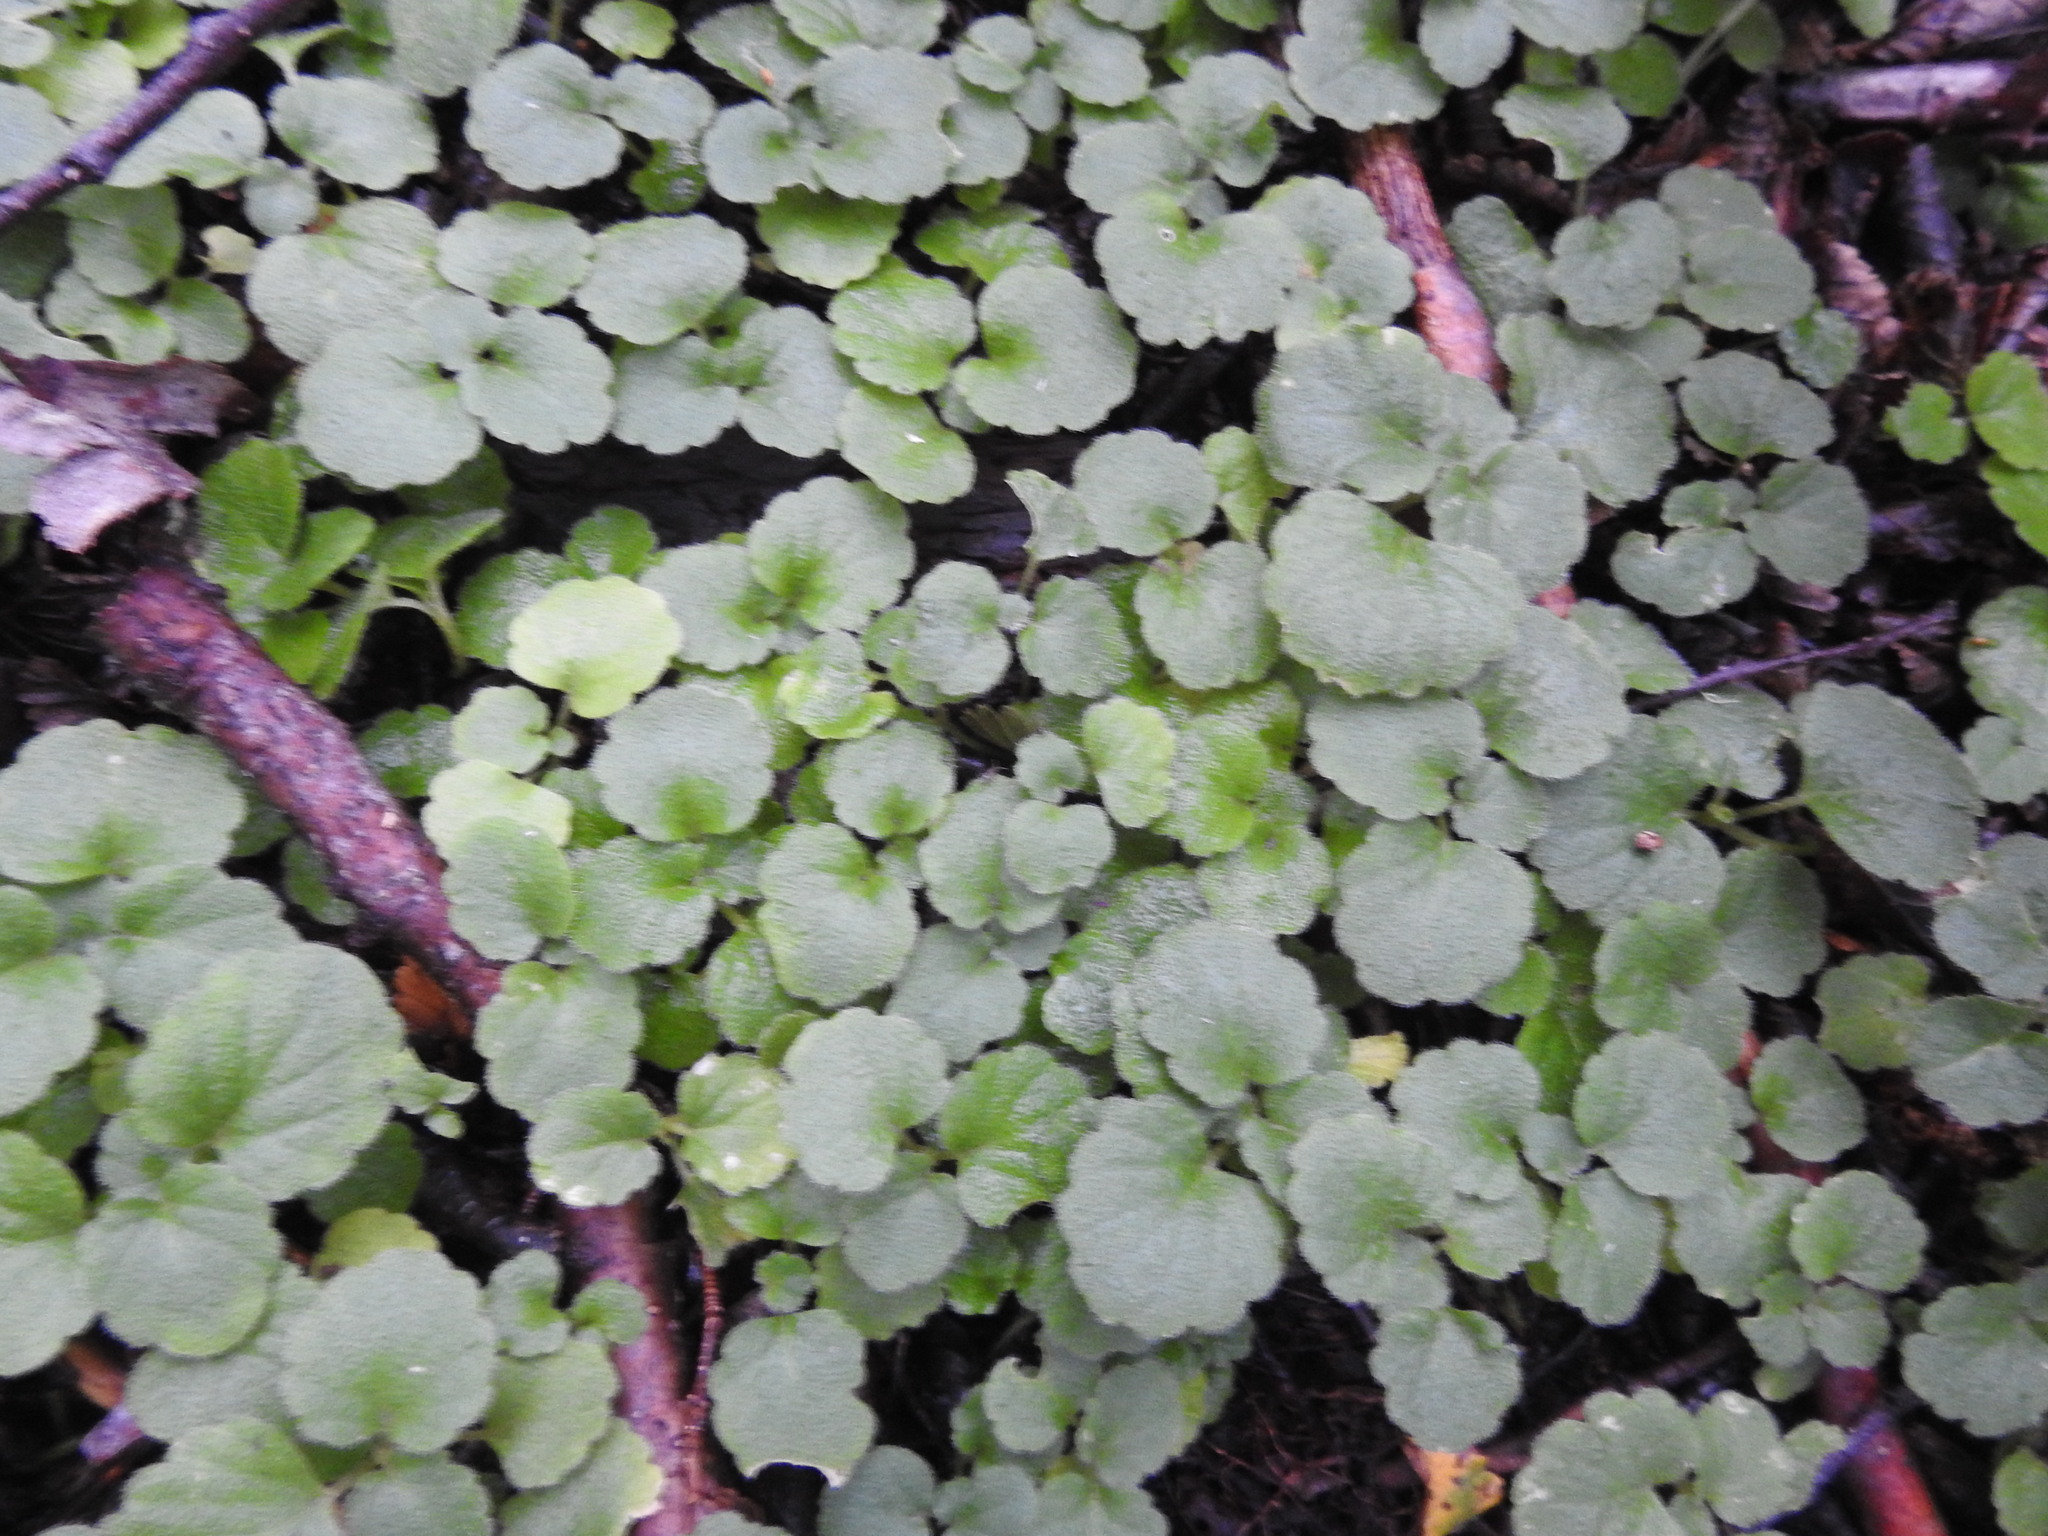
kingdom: Plantae
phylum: Tracheophyta
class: Magnoliopsida
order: Malpighiales
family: Euphorbiaceae
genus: Dysopsis
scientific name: Dysopsis glechomoides
